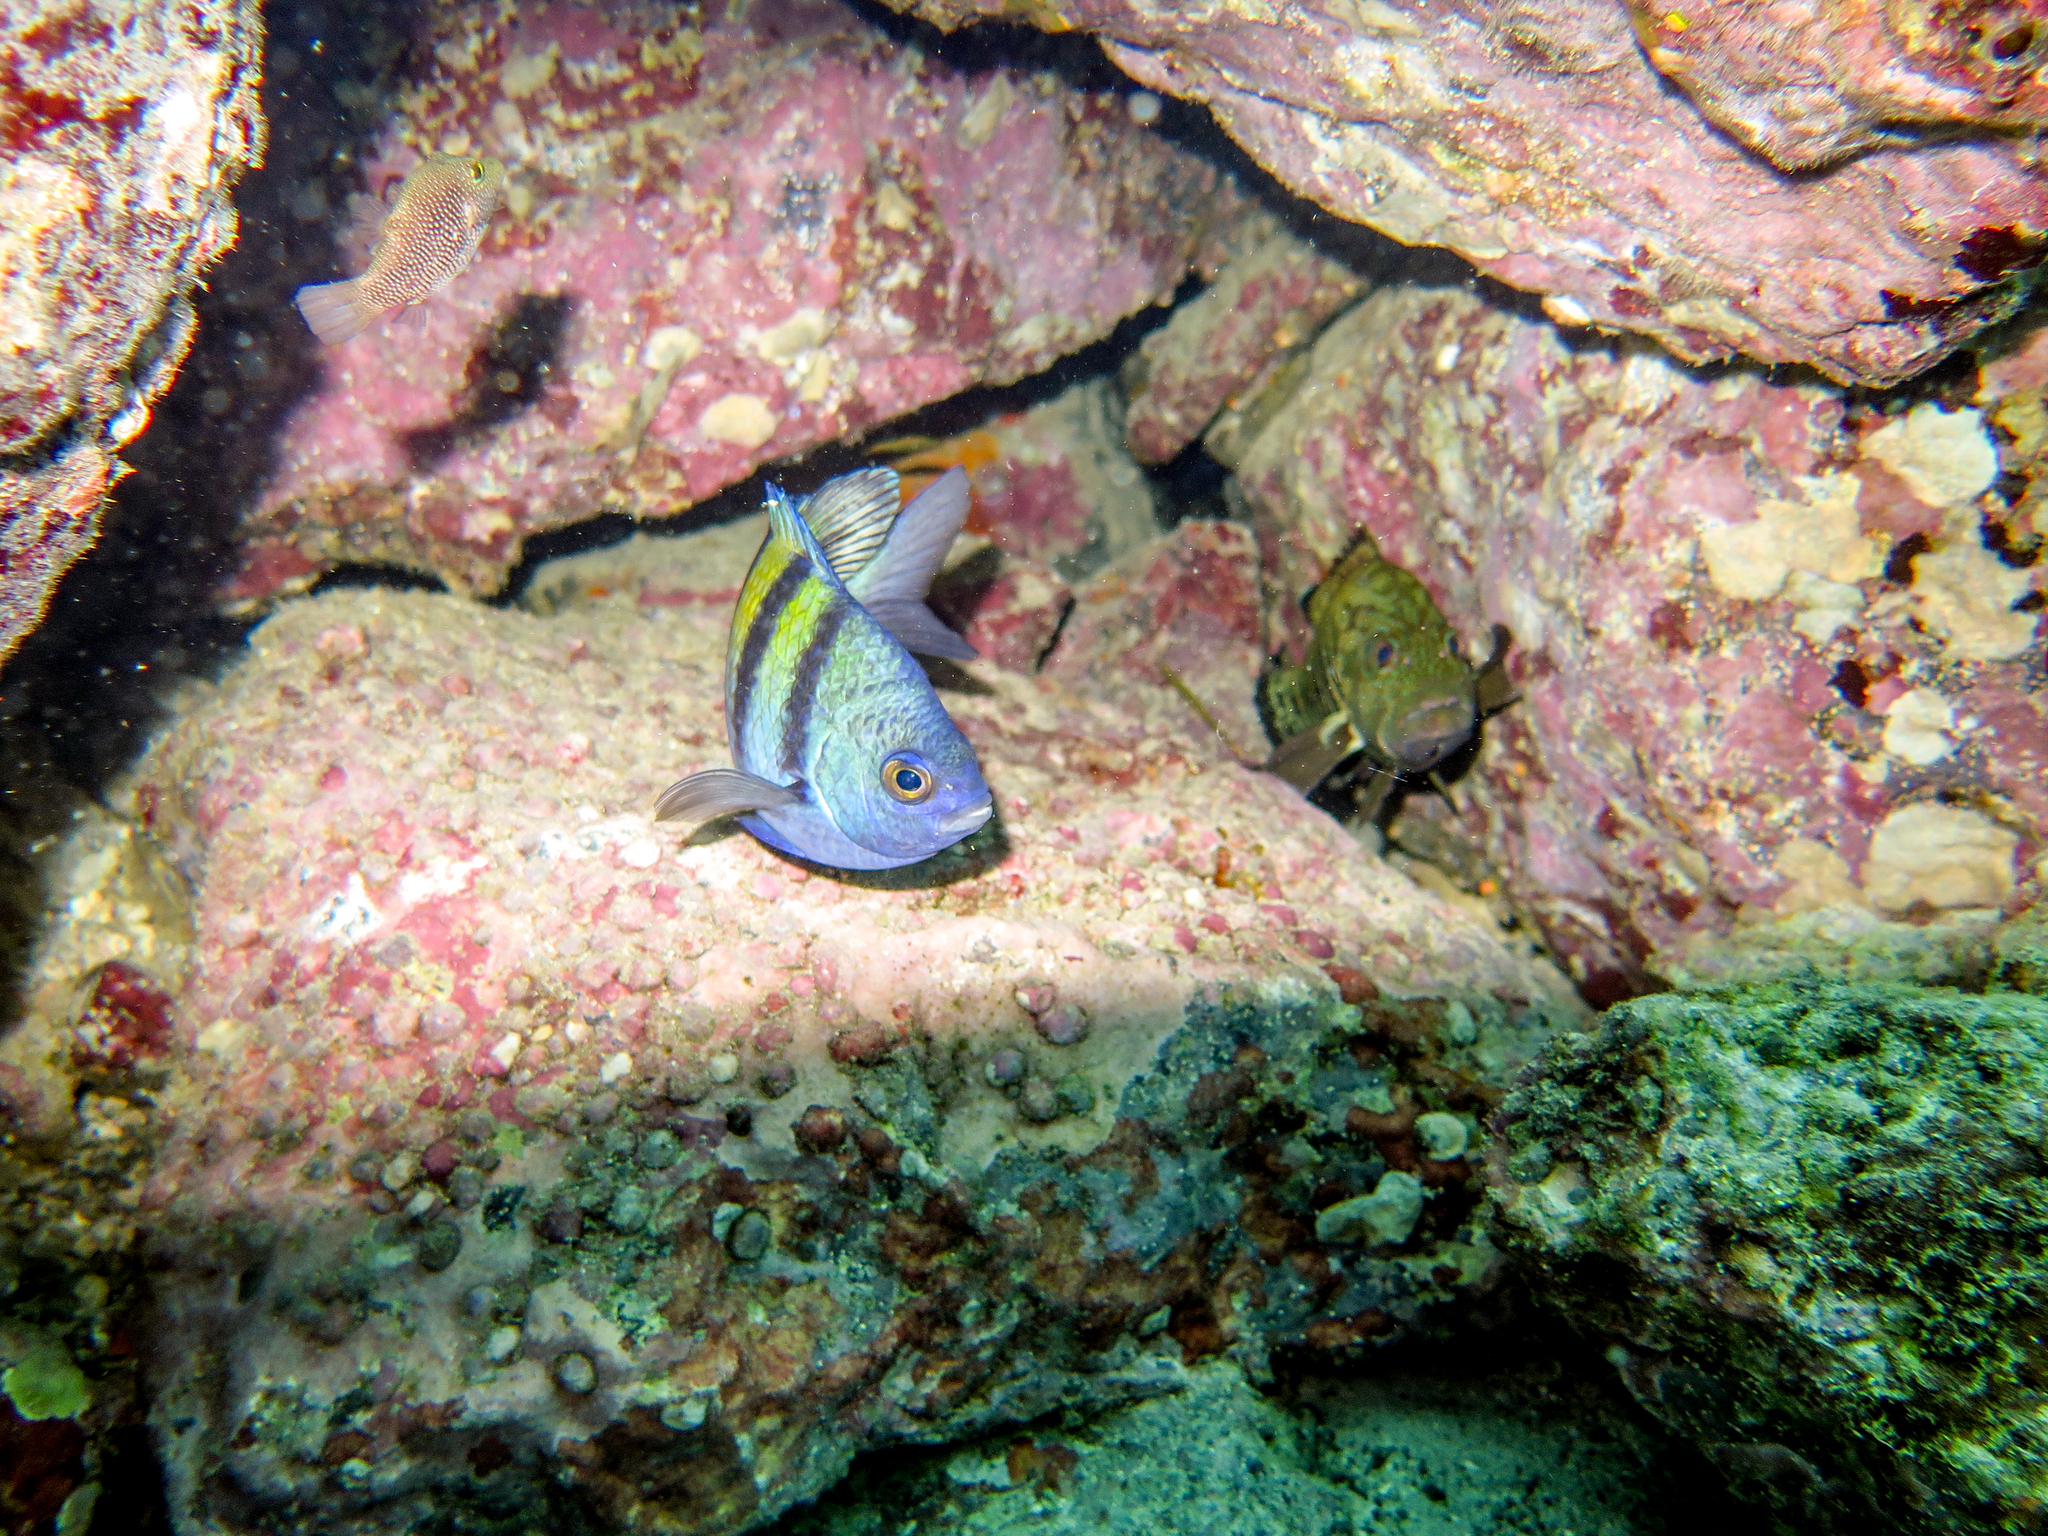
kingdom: Animalia
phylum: Chordata
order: Tetraodontiformes
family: Tetraodontidae
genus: Canthigaster
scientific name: Canthigaster punctatissima
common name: Spotted sharpnose puffer
